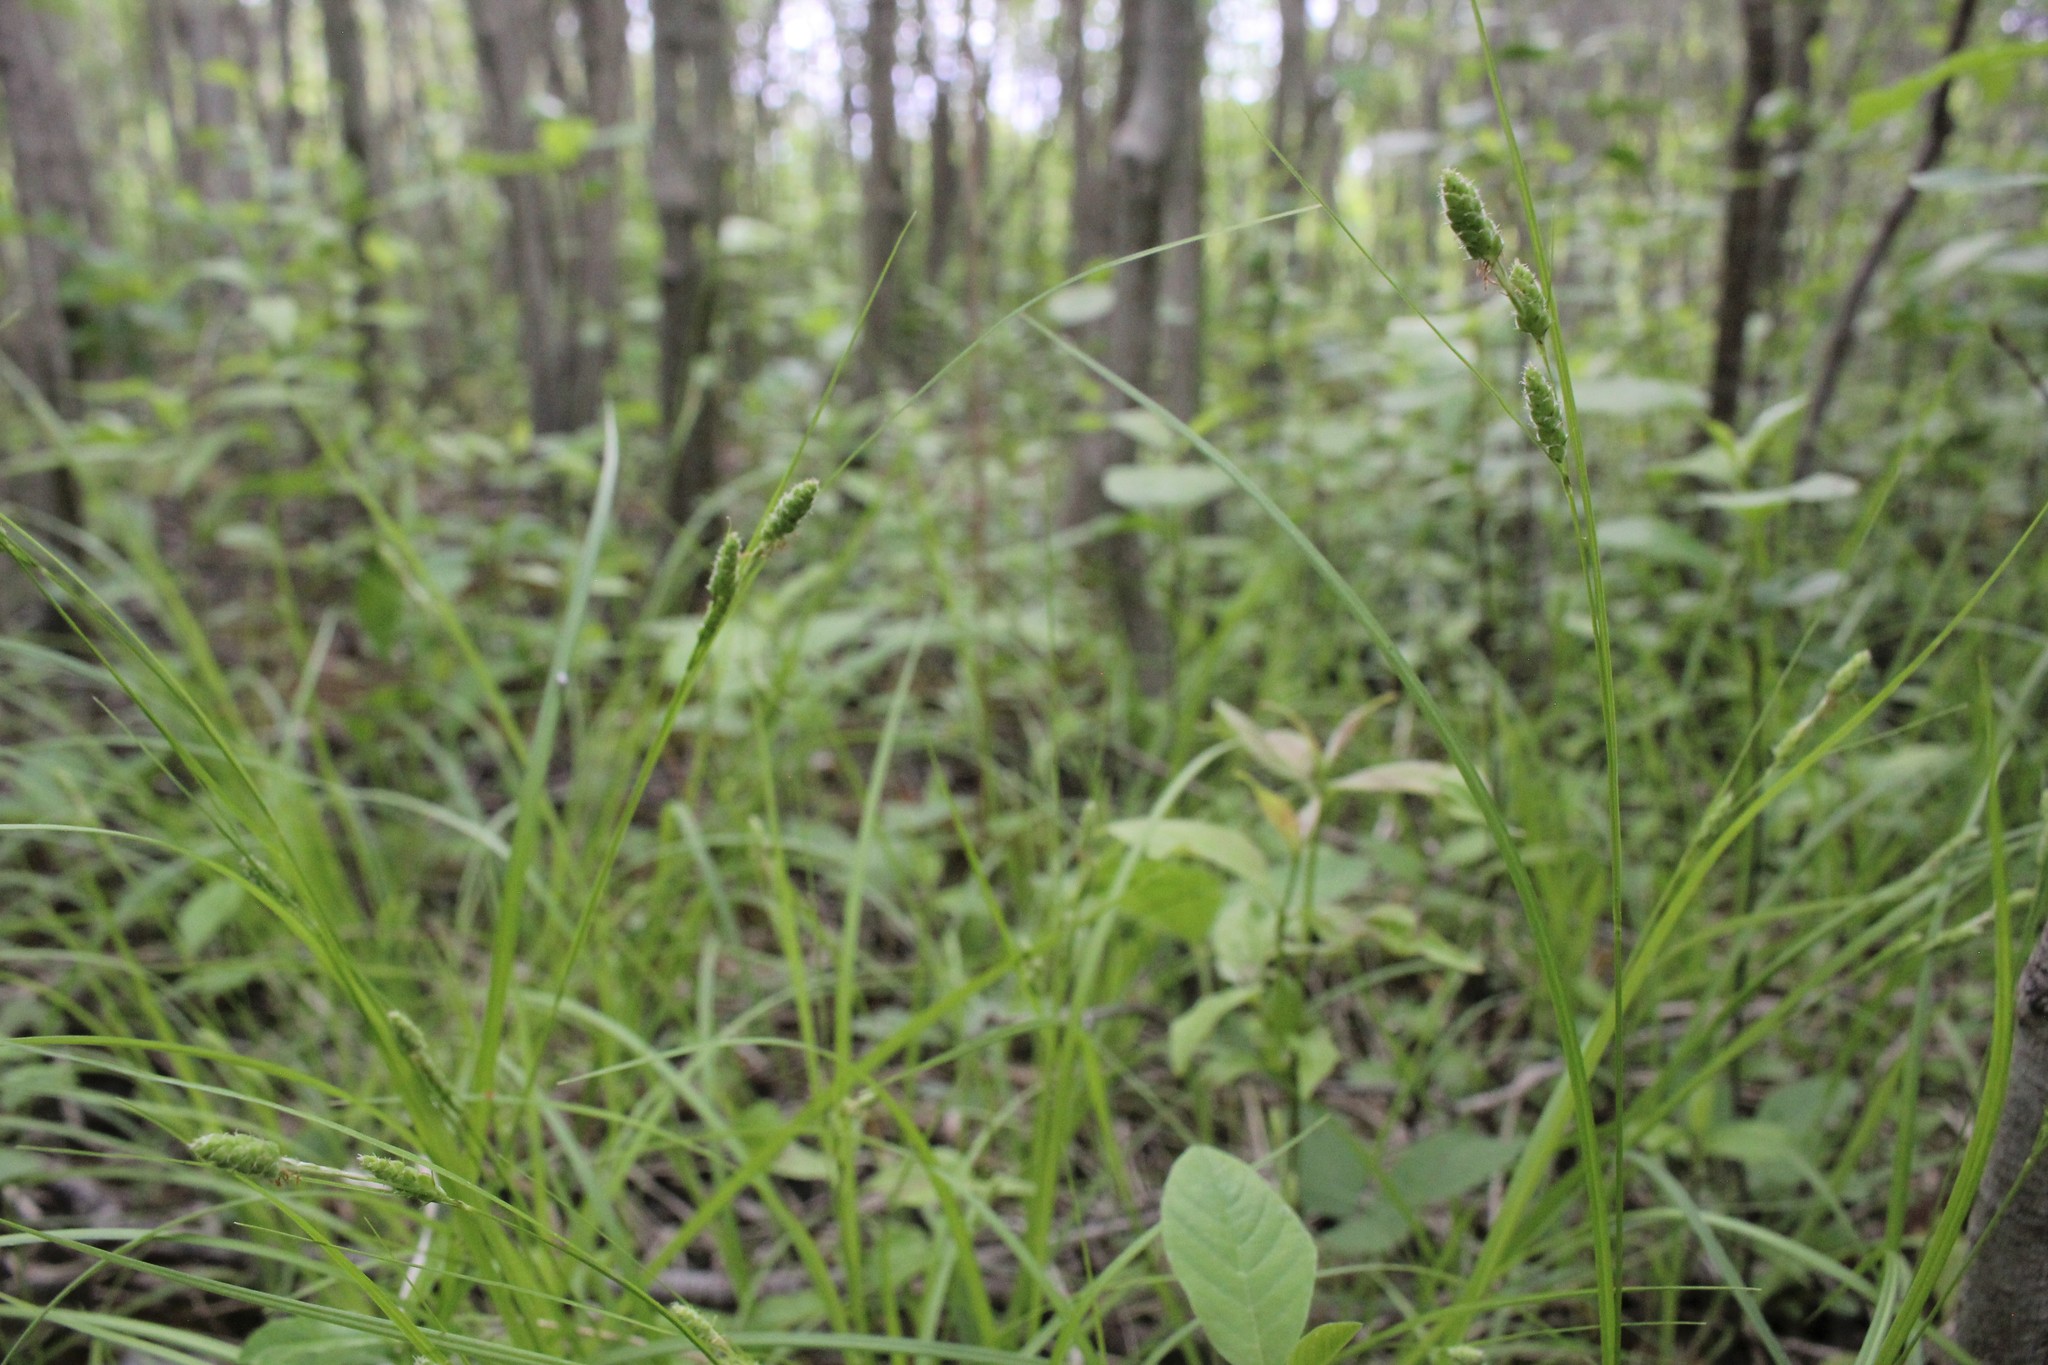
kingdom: Plantae
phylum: Tracheophyta
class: Liliopsida
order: Poales
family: Cyperaceae
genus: Carex
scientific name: Carex swanii
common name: Downy green sedge
